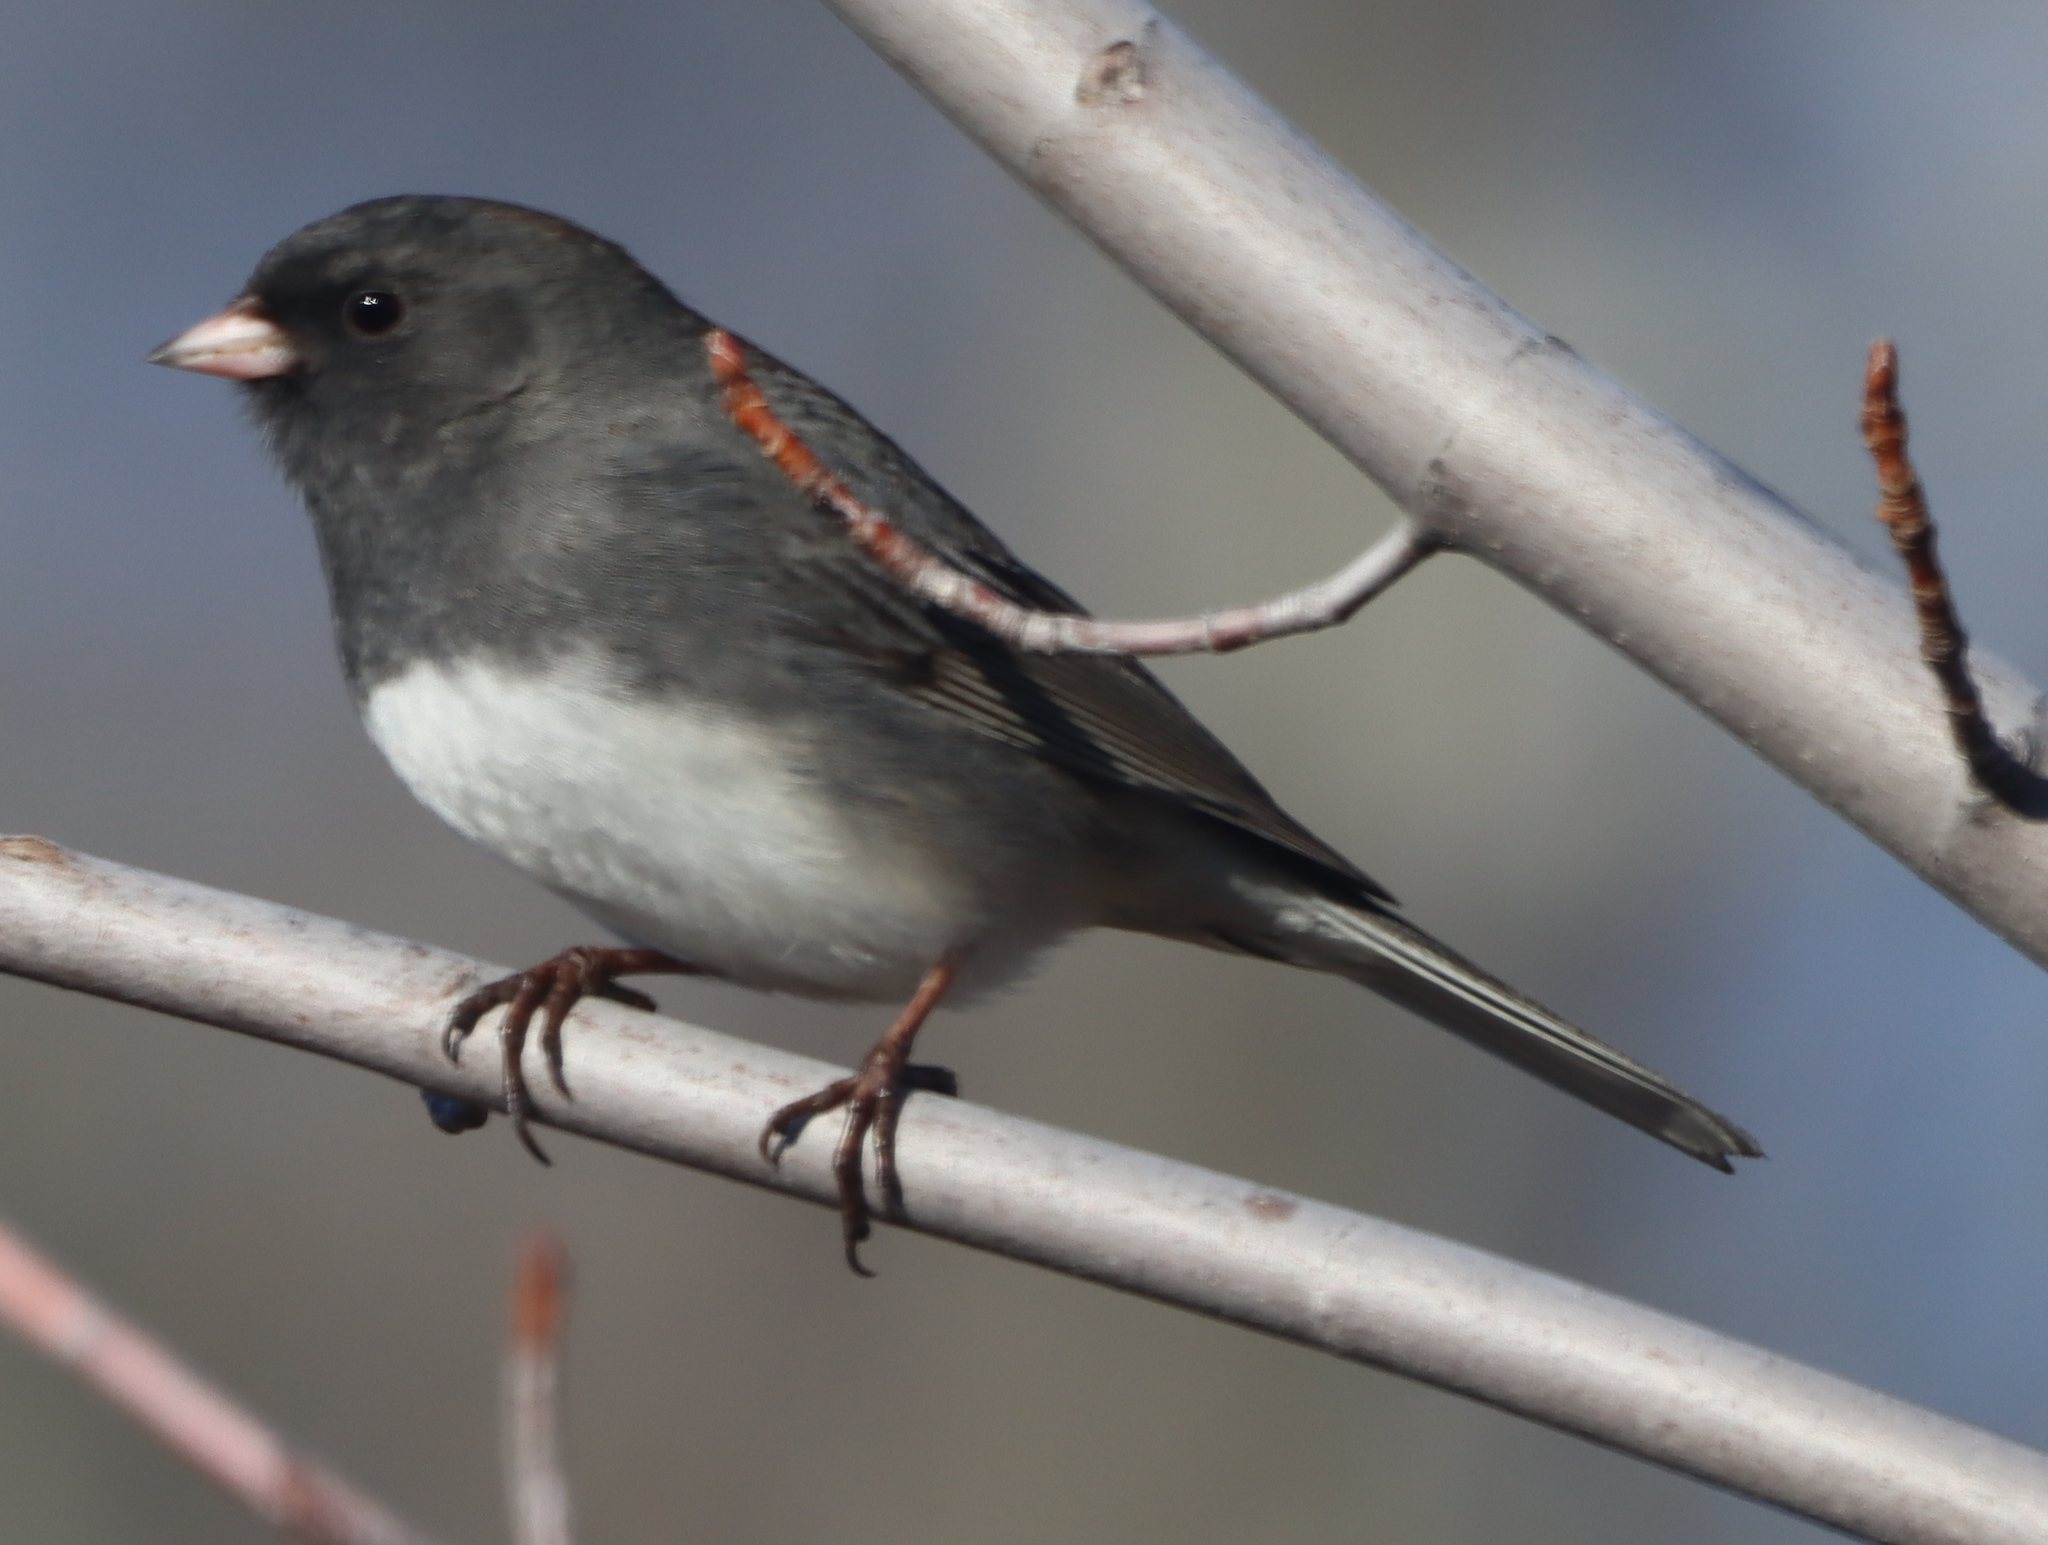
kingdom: Animalia
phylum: Chordata
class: Aves
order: Passeriformes
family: Passerellidae
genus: Junco
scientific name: Junco hyemalis
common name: Dark-eyed junco
